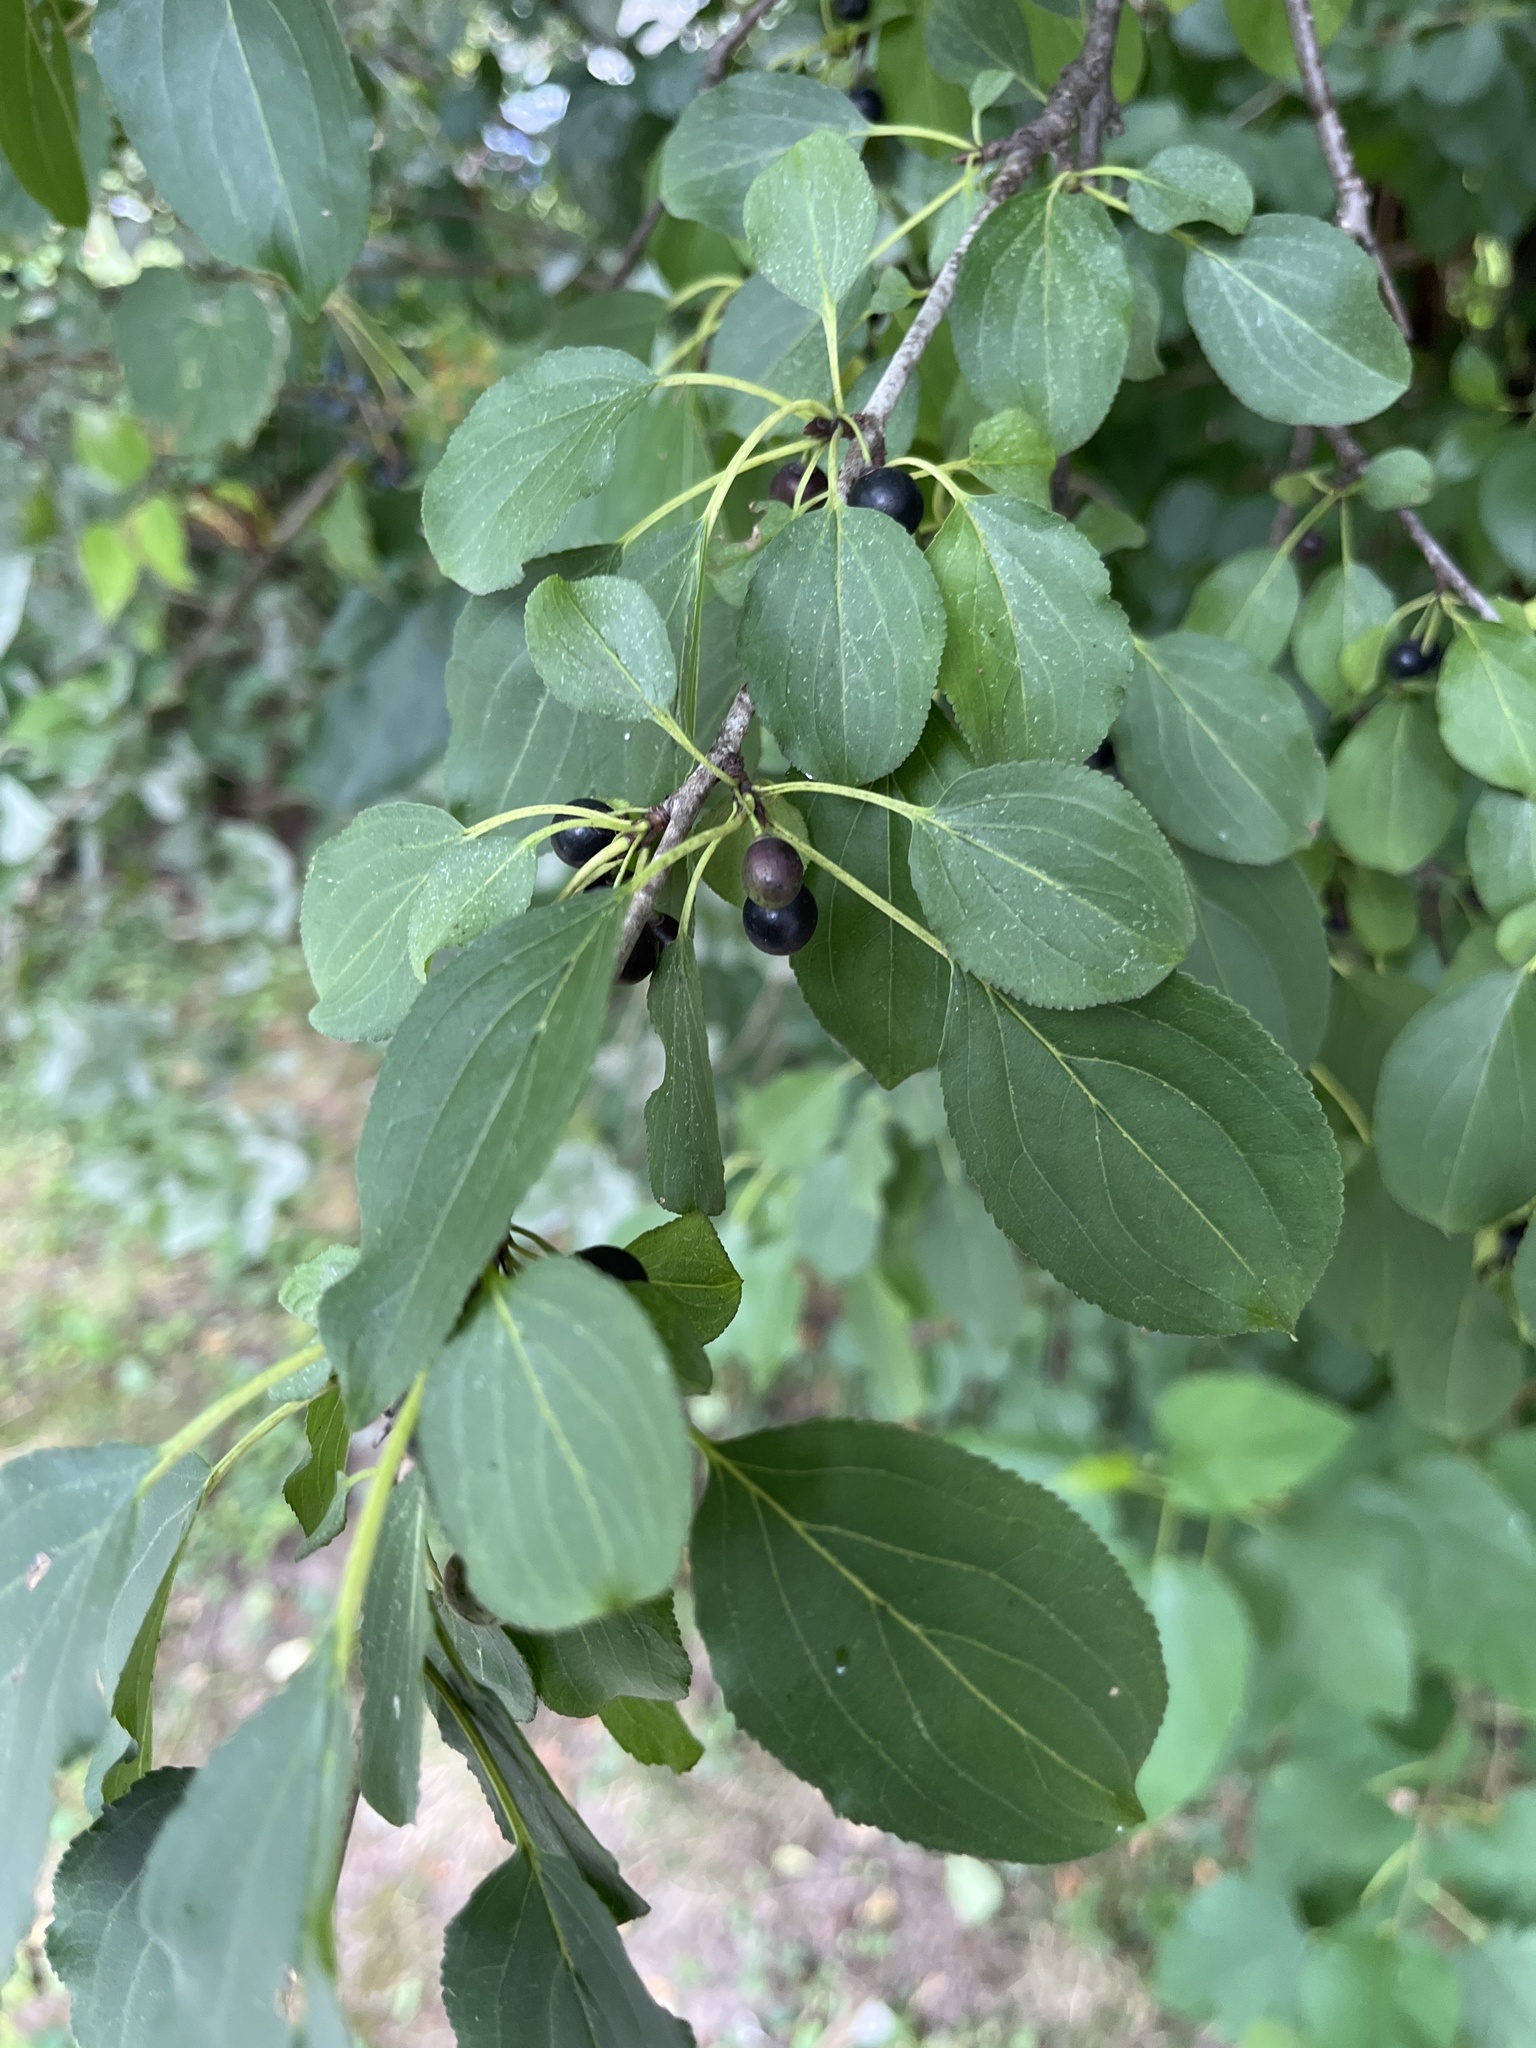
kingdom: Plantae
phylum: Tracheophyta
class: Magnoliopsida
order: Rosales
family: Rhamnaceae
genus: Rhamnus
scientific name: Rhamnus cathartica
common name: Common buckthorn
